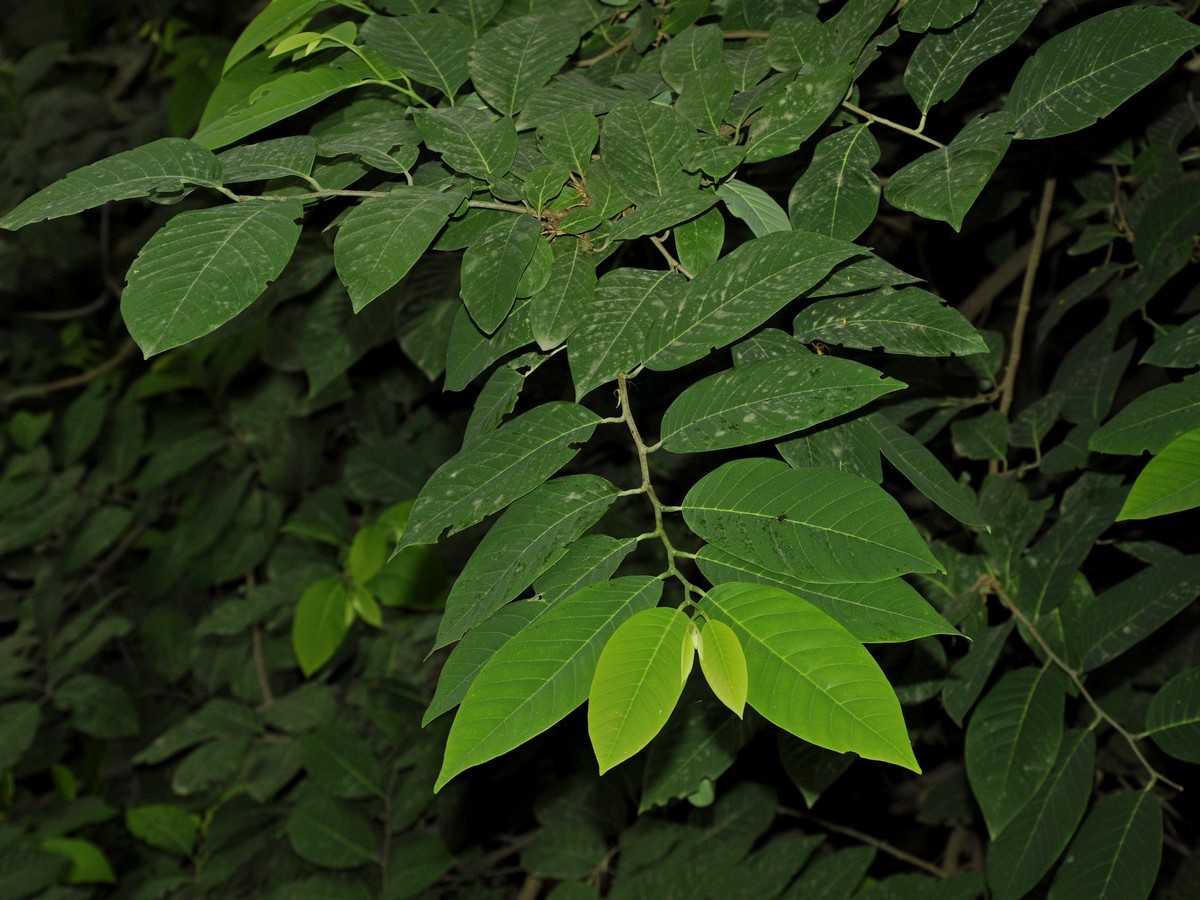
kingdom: Plantae
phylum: Tracheophyta
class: Magnoliopsida
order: Magnoliales
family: Annonaceae
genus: Annona
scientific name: Annona squamosa
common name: Custard-apple
